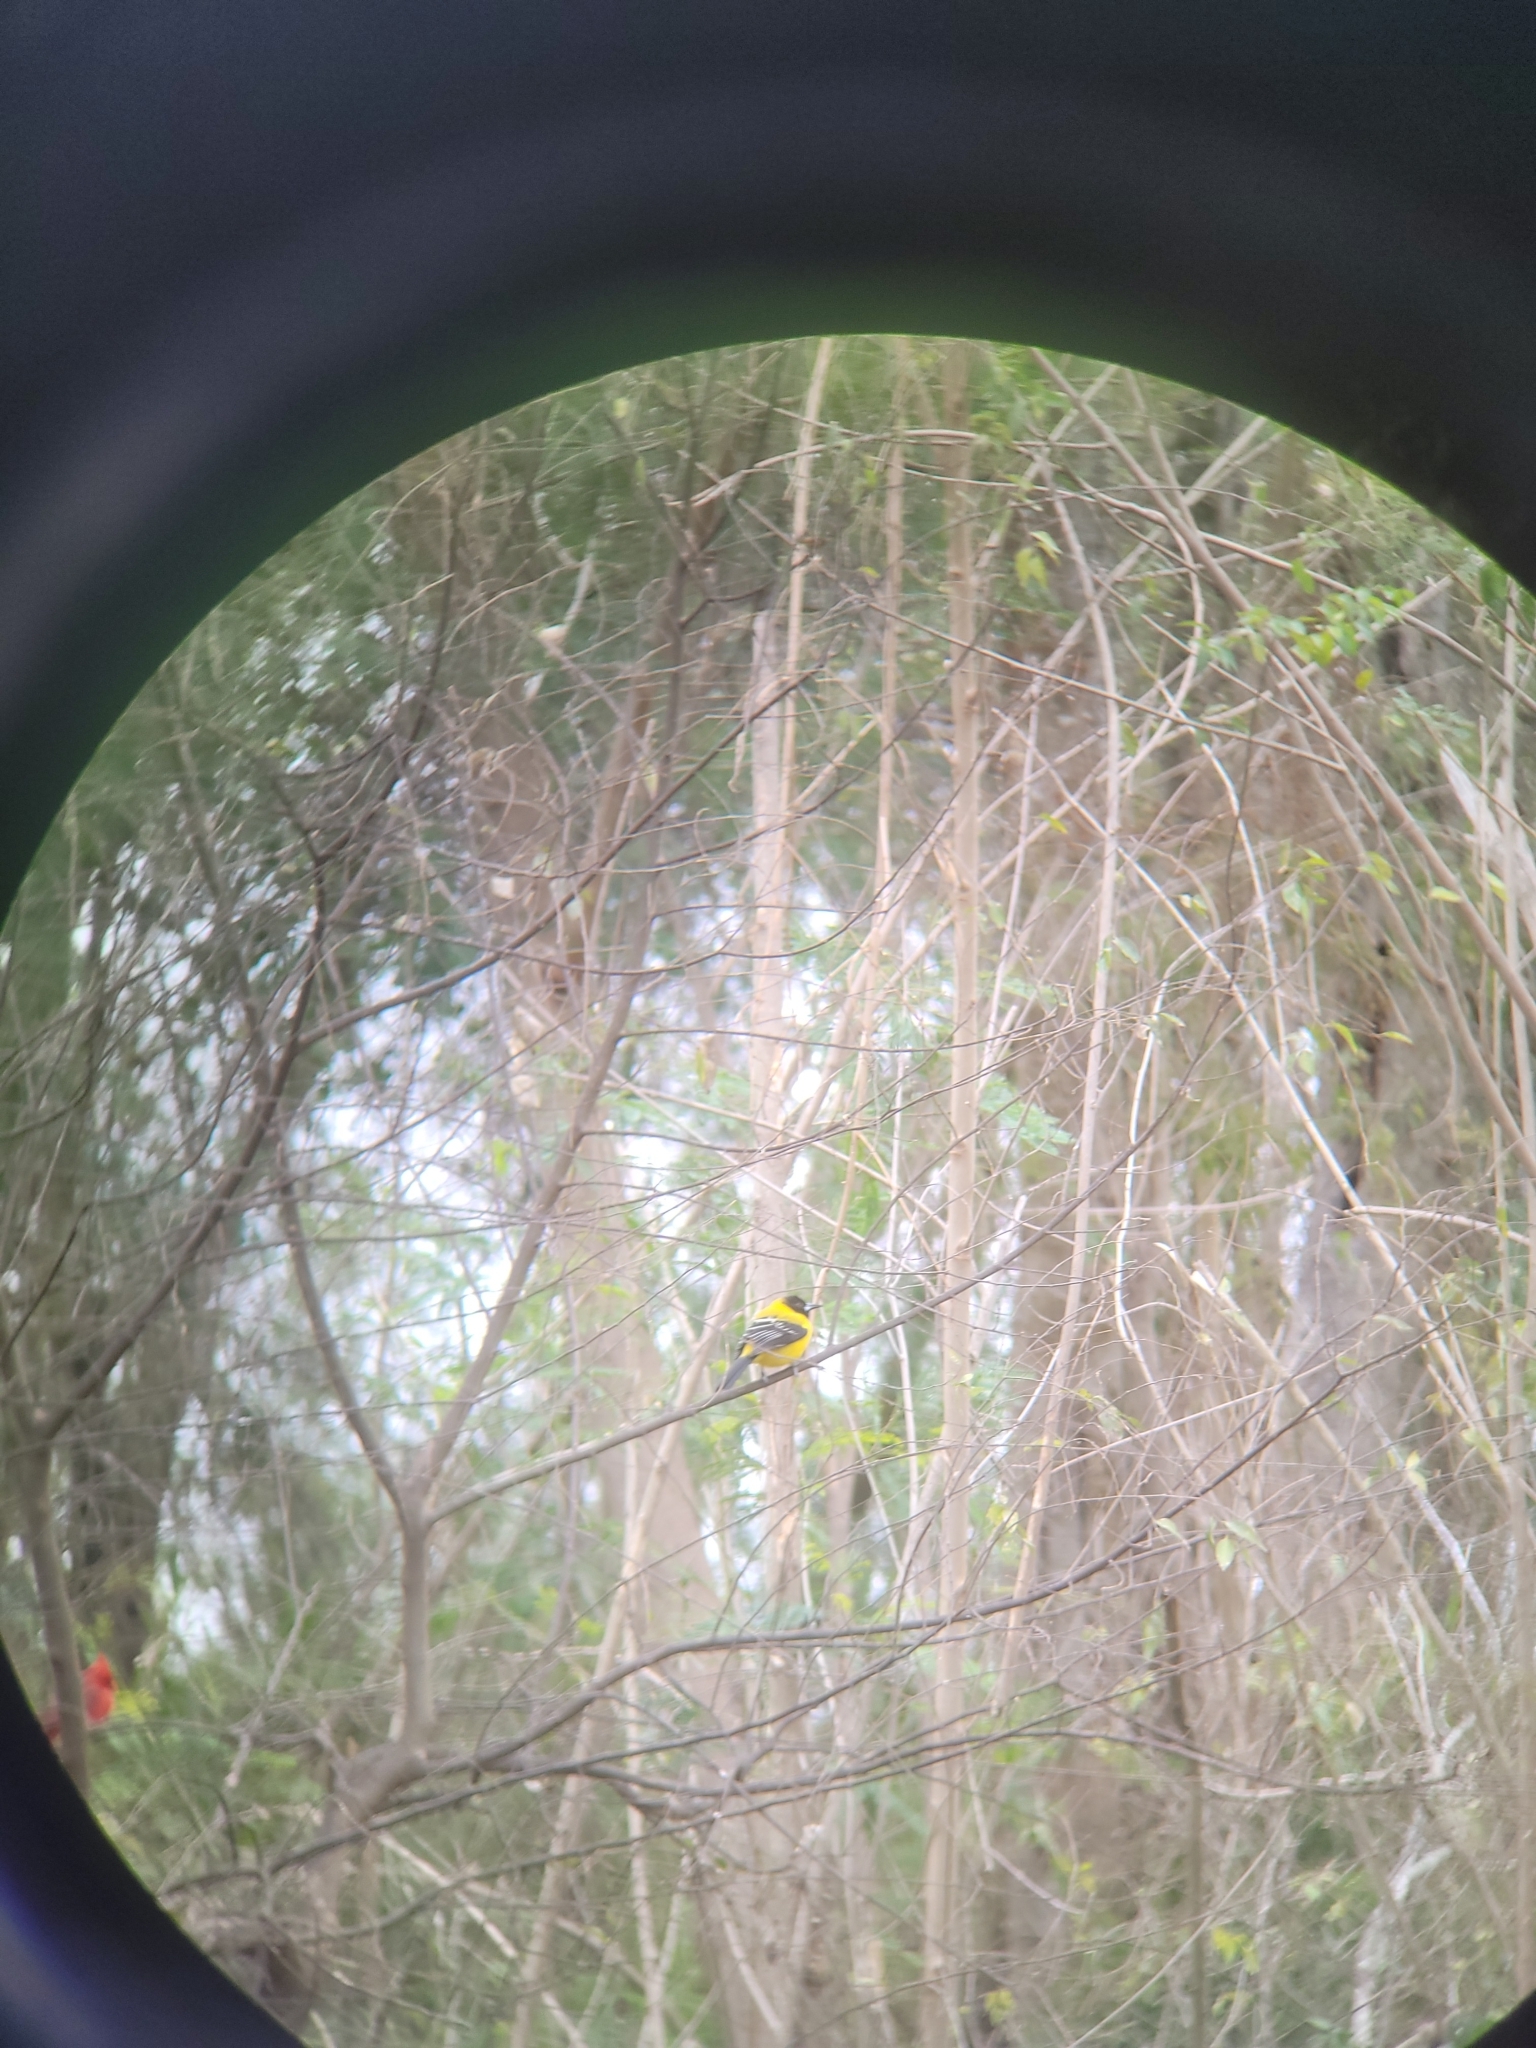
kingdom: Animalia
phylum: Chordata
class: Aves
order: Passeriformes
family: Icteridae
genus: Icterus
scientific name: Icterus graduacauda
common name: Audubon's oriole
